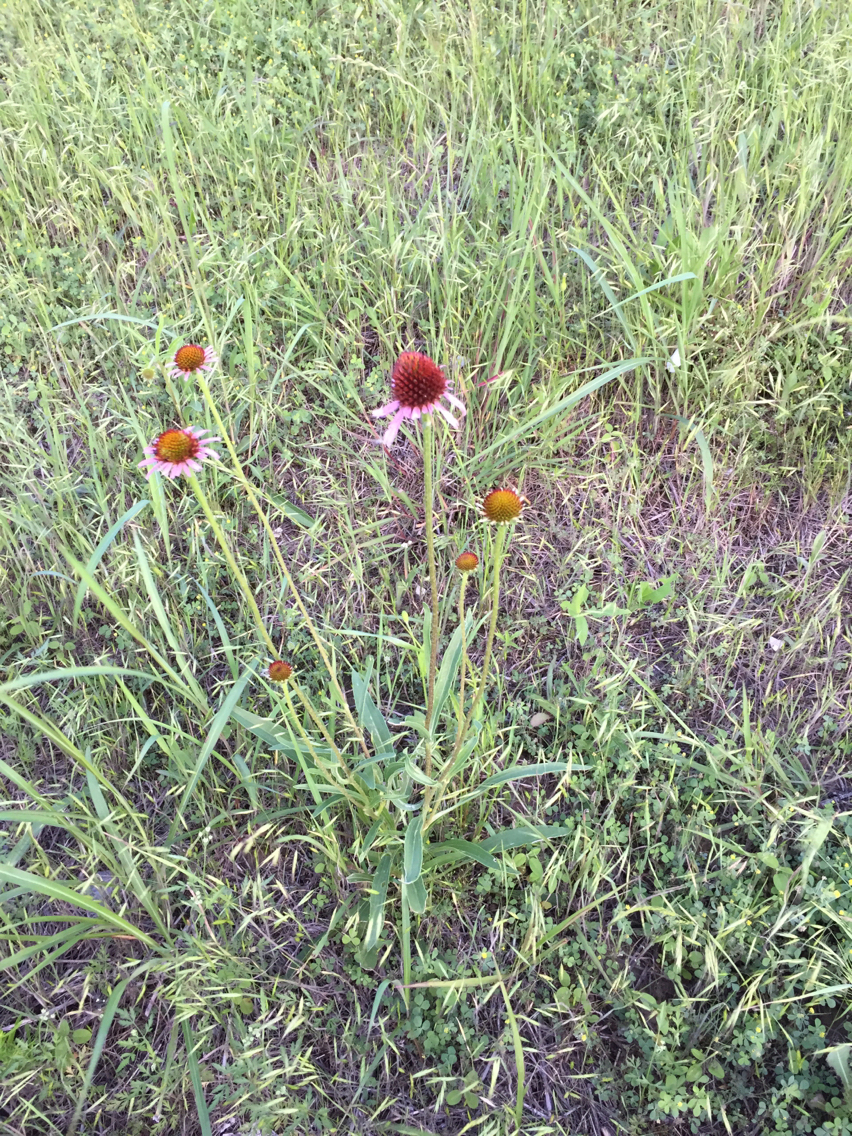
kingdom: Plantae
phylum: Tracheophyta
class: Magnoliopsida
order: Asterales
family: Asteraceae
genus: Echinacea
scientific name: Echinacea angustifolia
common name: Black-sampson echinacea
